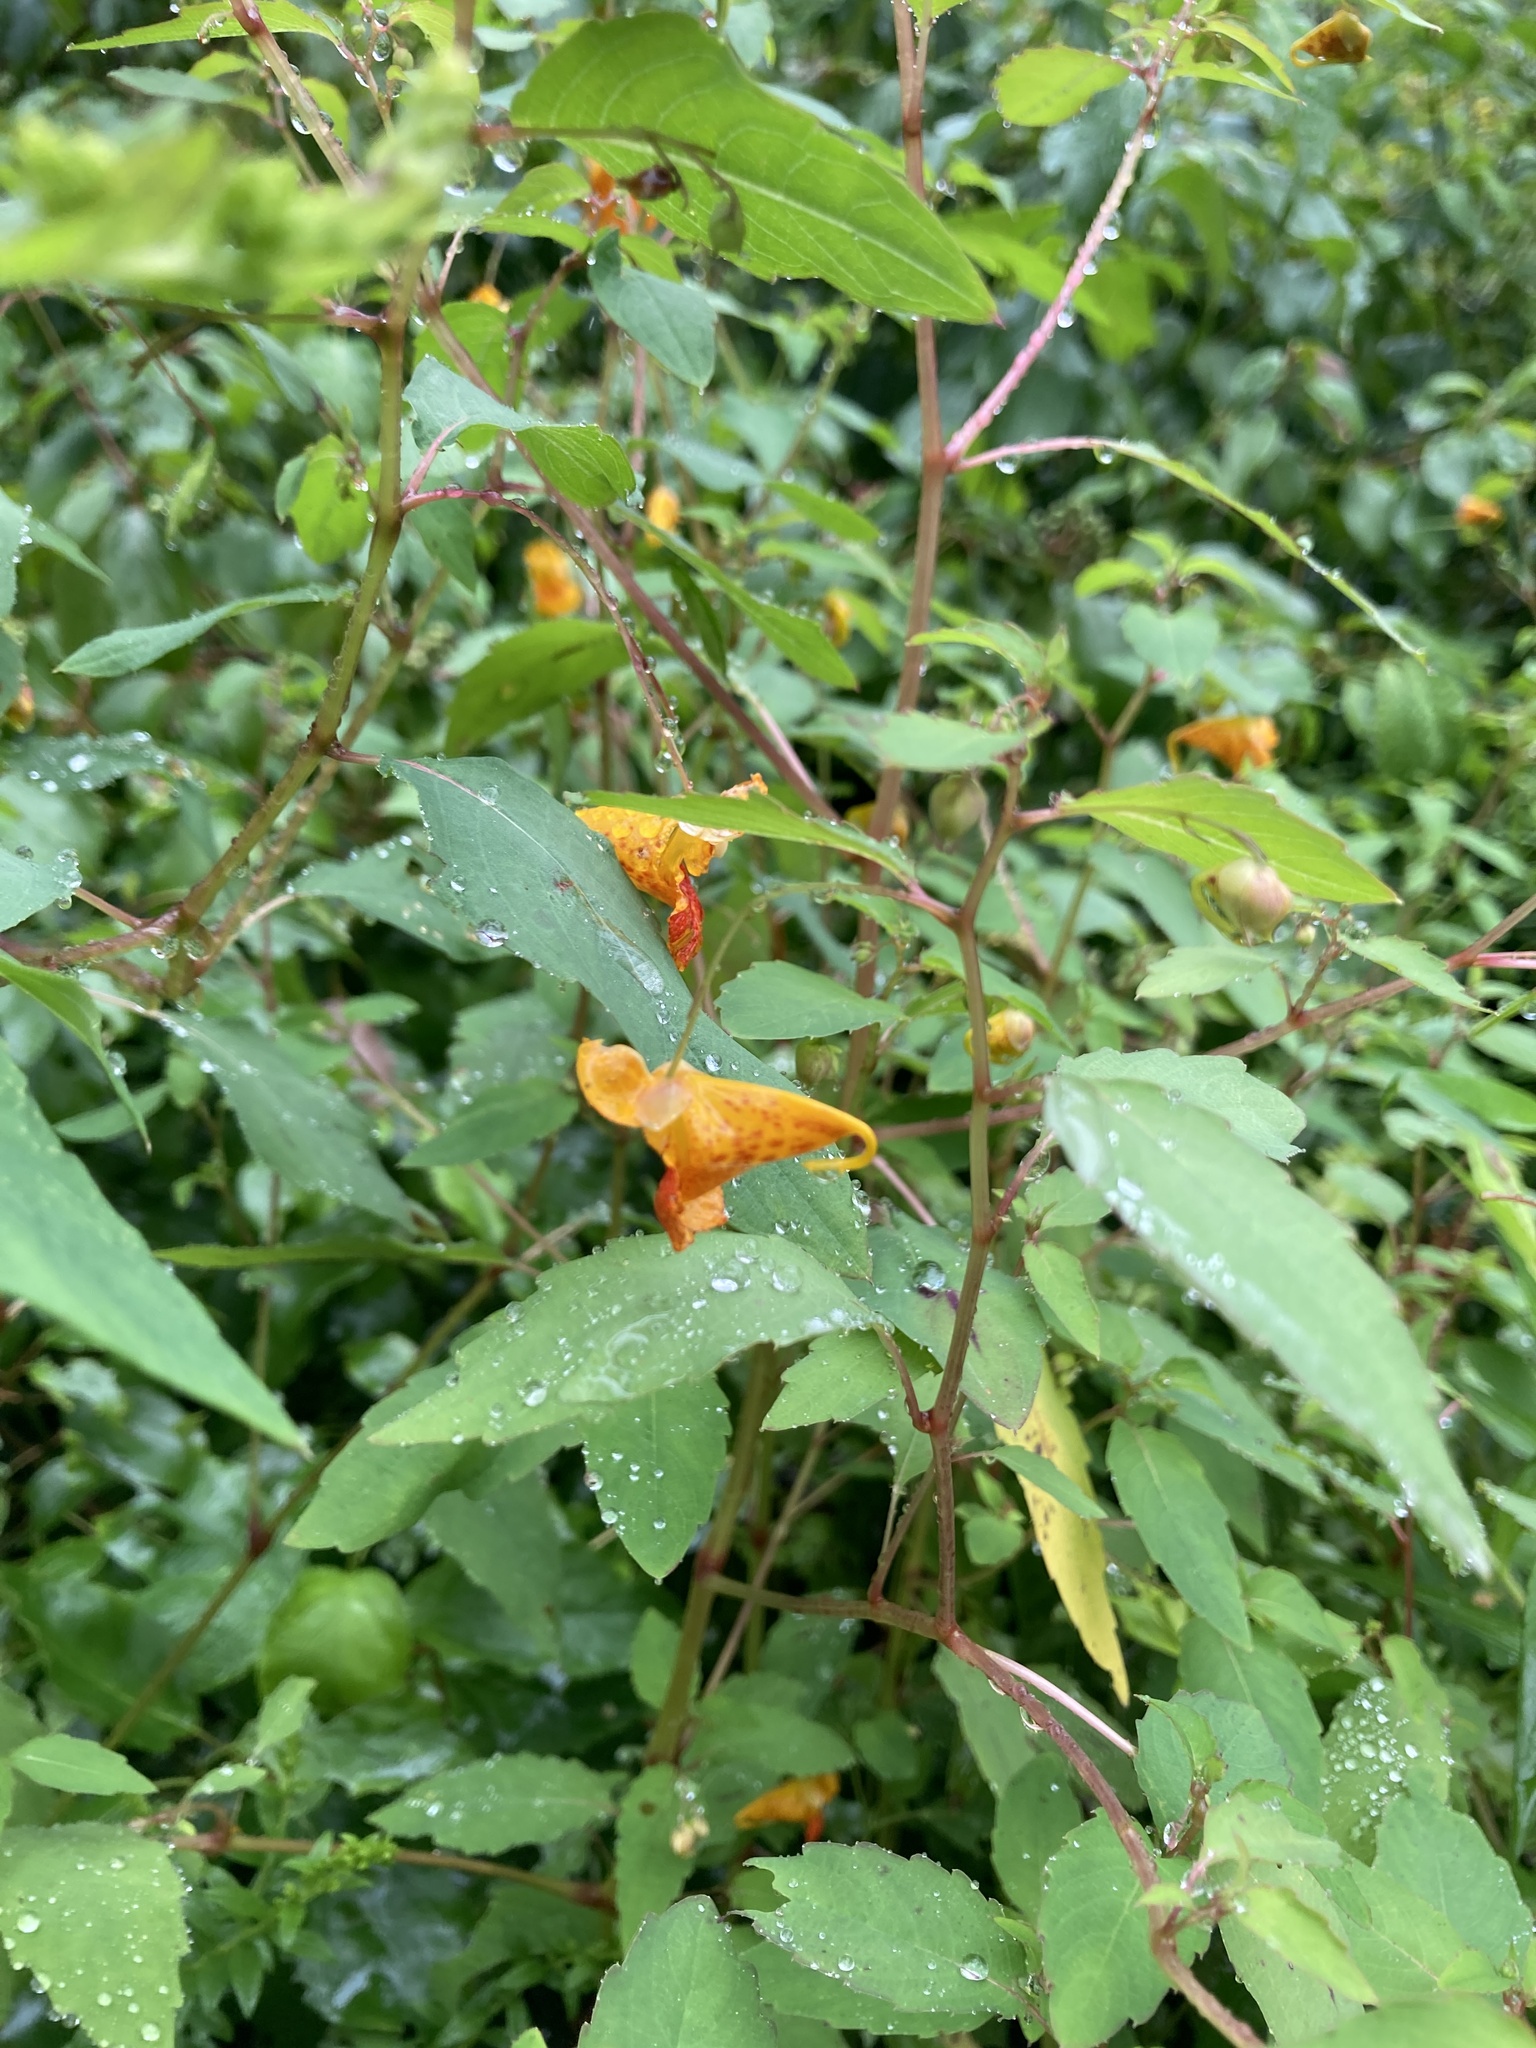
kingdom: Plantae
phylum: Tracheophyta
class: Magnoliopsida
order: Ericales
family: Balsaminaceae
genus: Impatiens
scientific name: Impatiens capensis
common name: Orange balsam
